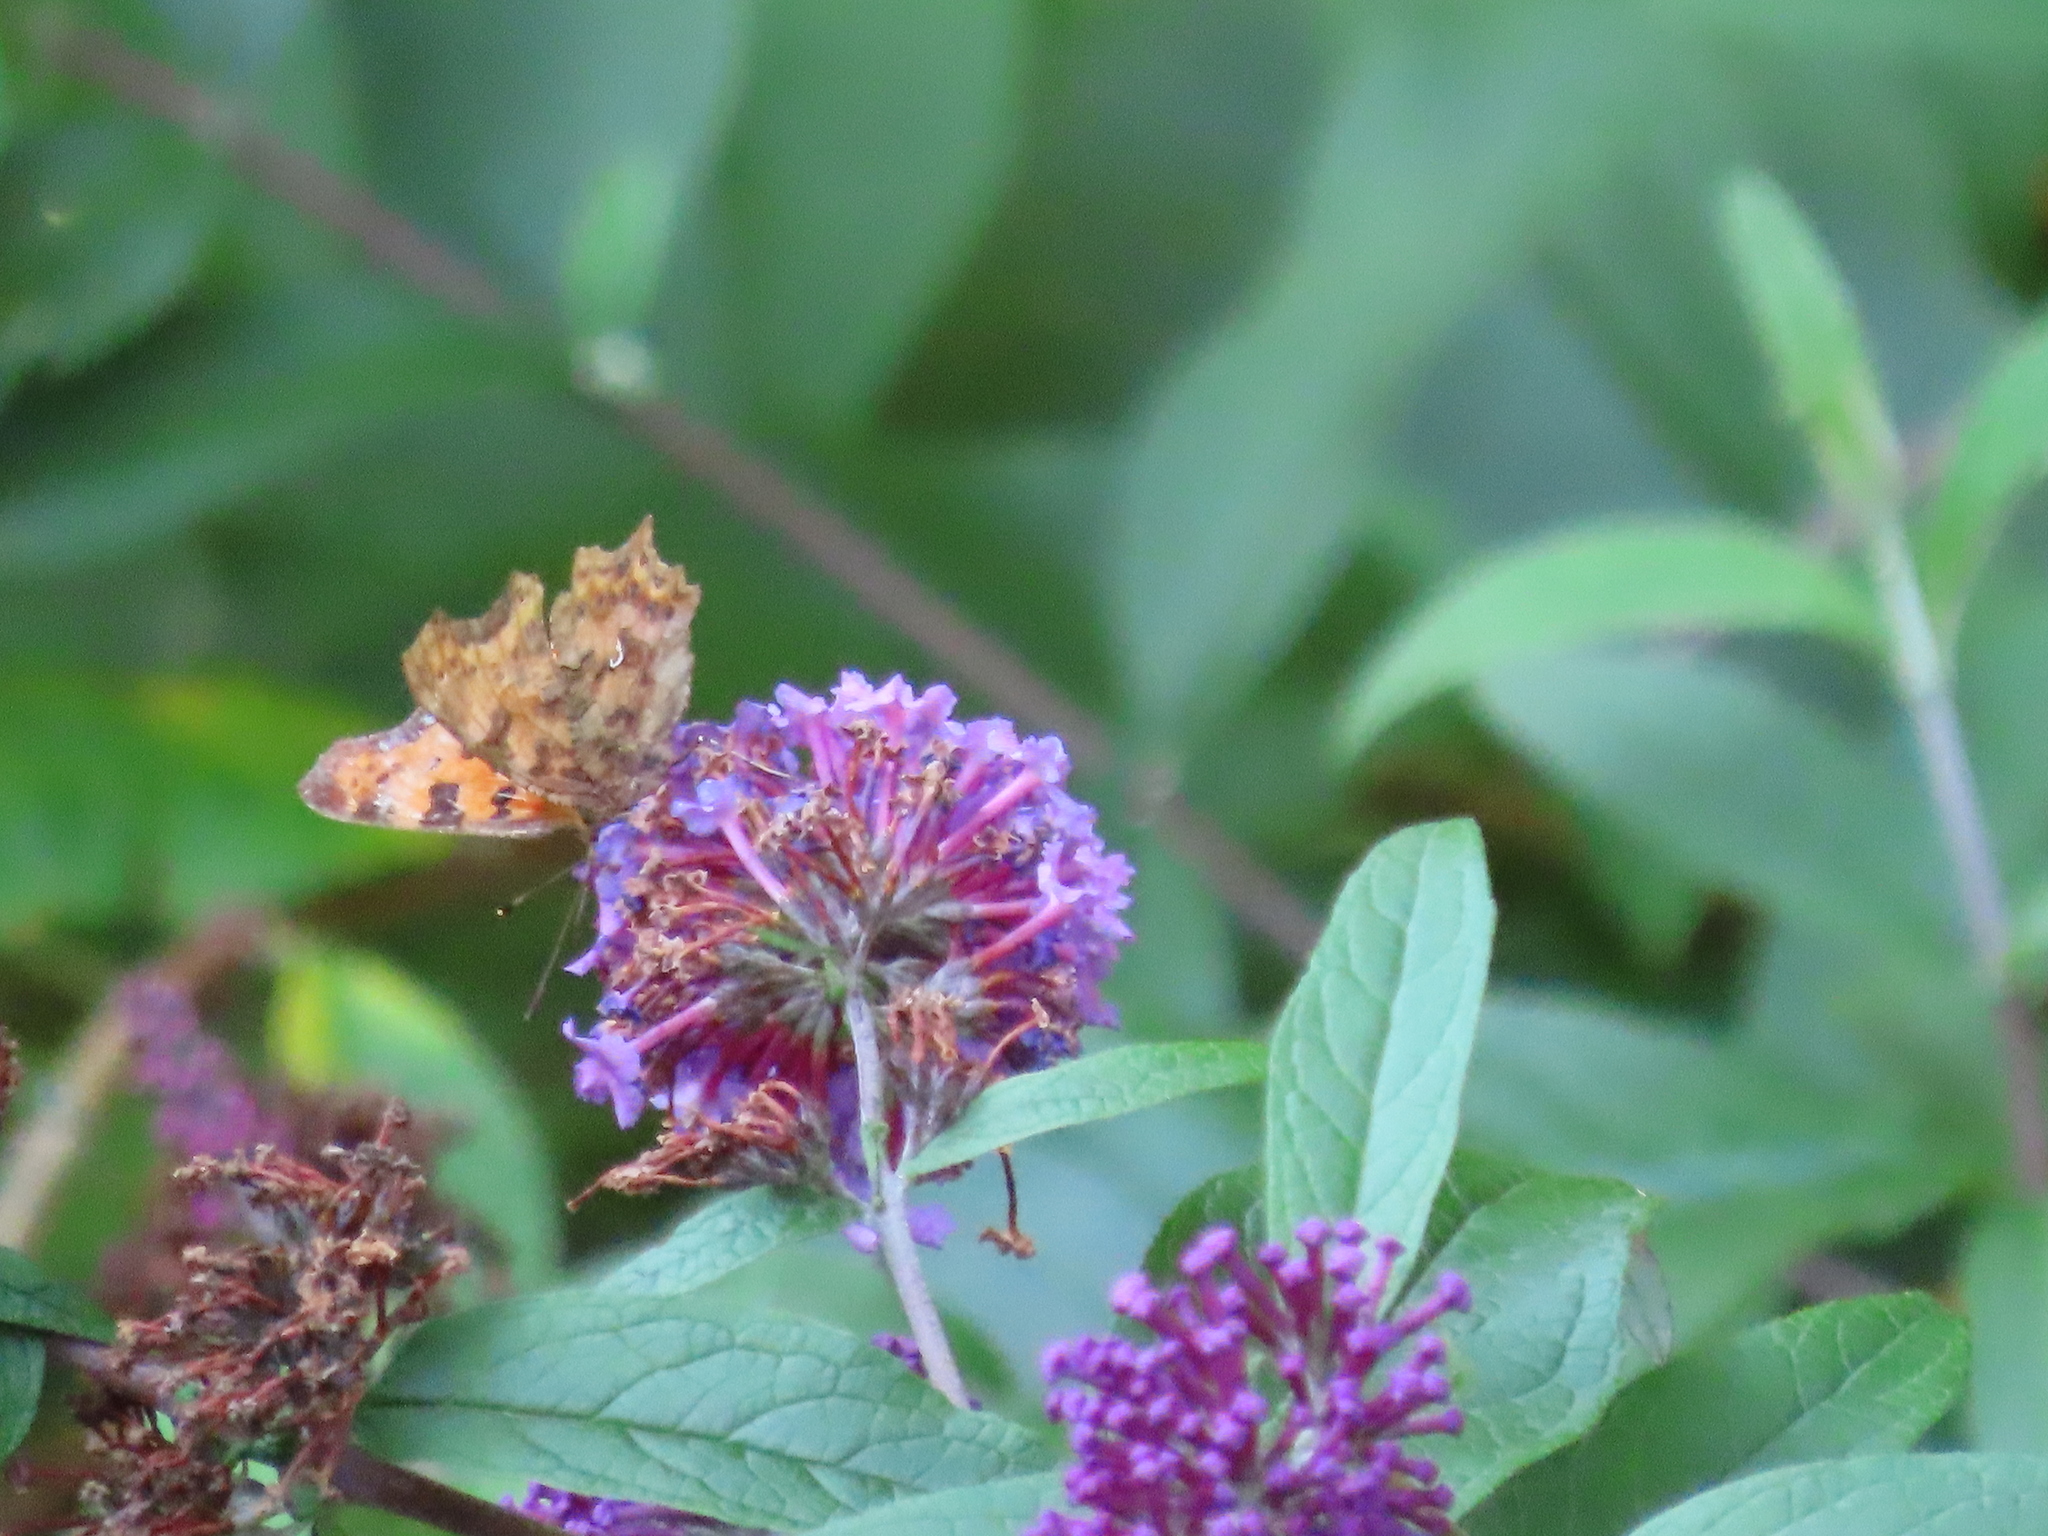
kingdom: Animalia
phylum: Arthropoda
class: Insecta
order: Lepidoptera
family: Nymphalidae
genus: Polygonia
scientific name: Polygonia c-album
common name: Comma
